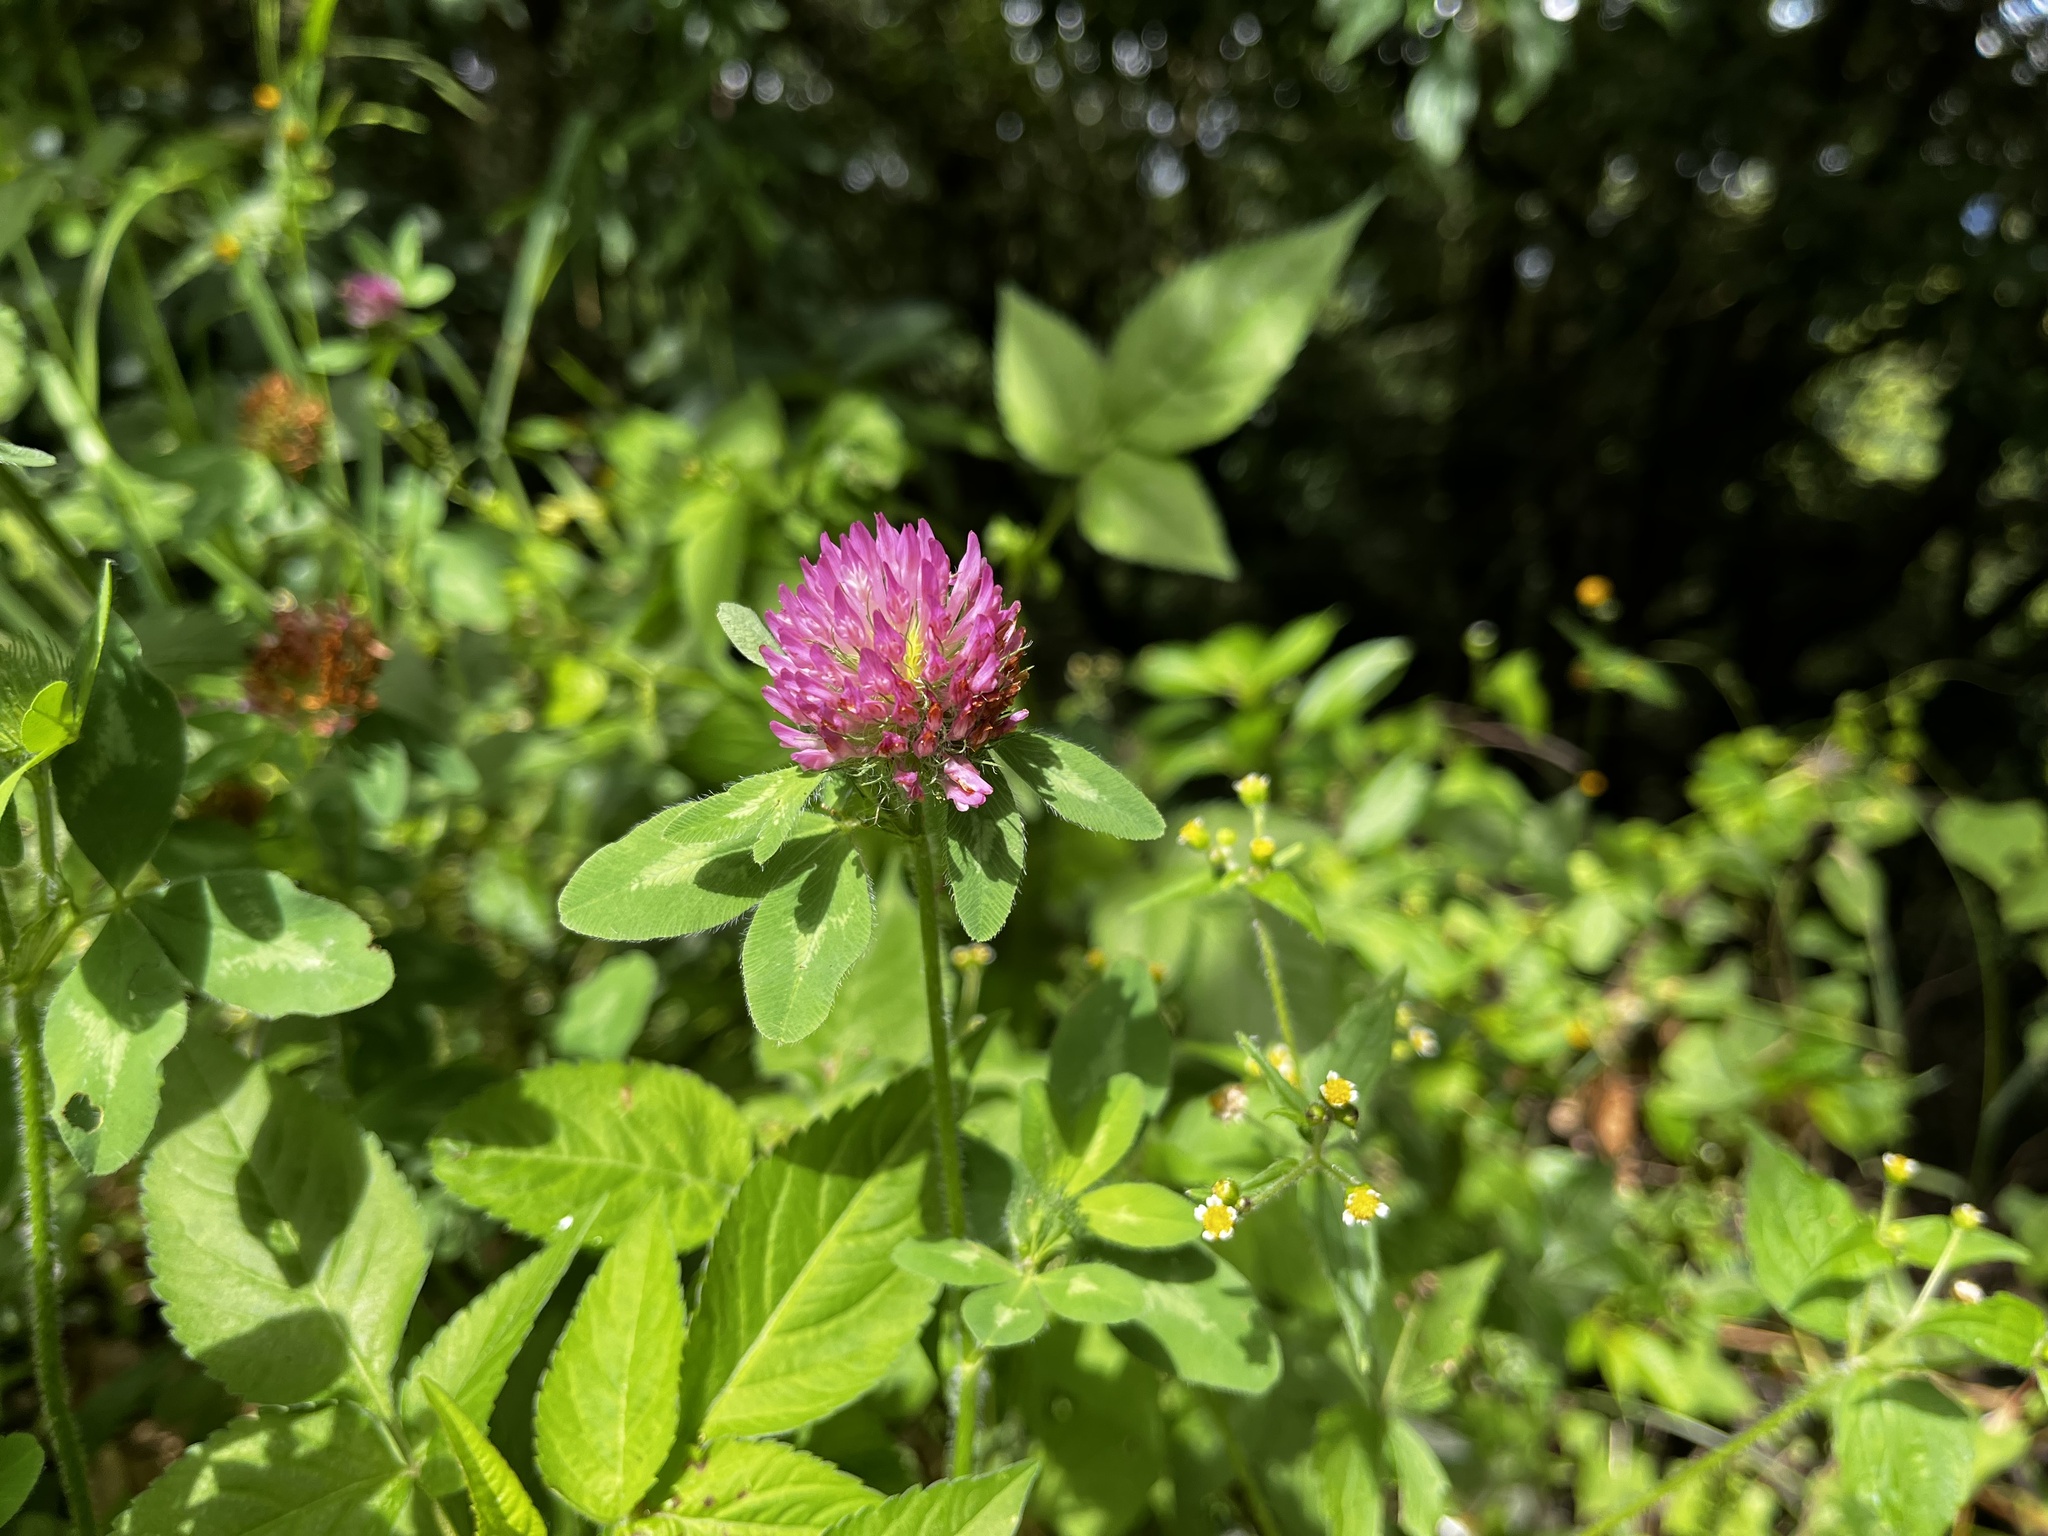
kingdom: Plantae
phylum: Tracheophyta
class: Magnoliopsida
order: Fabales
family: Fabaceae
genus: Trifolium
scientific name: Trifolium pratense
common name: Red clover
